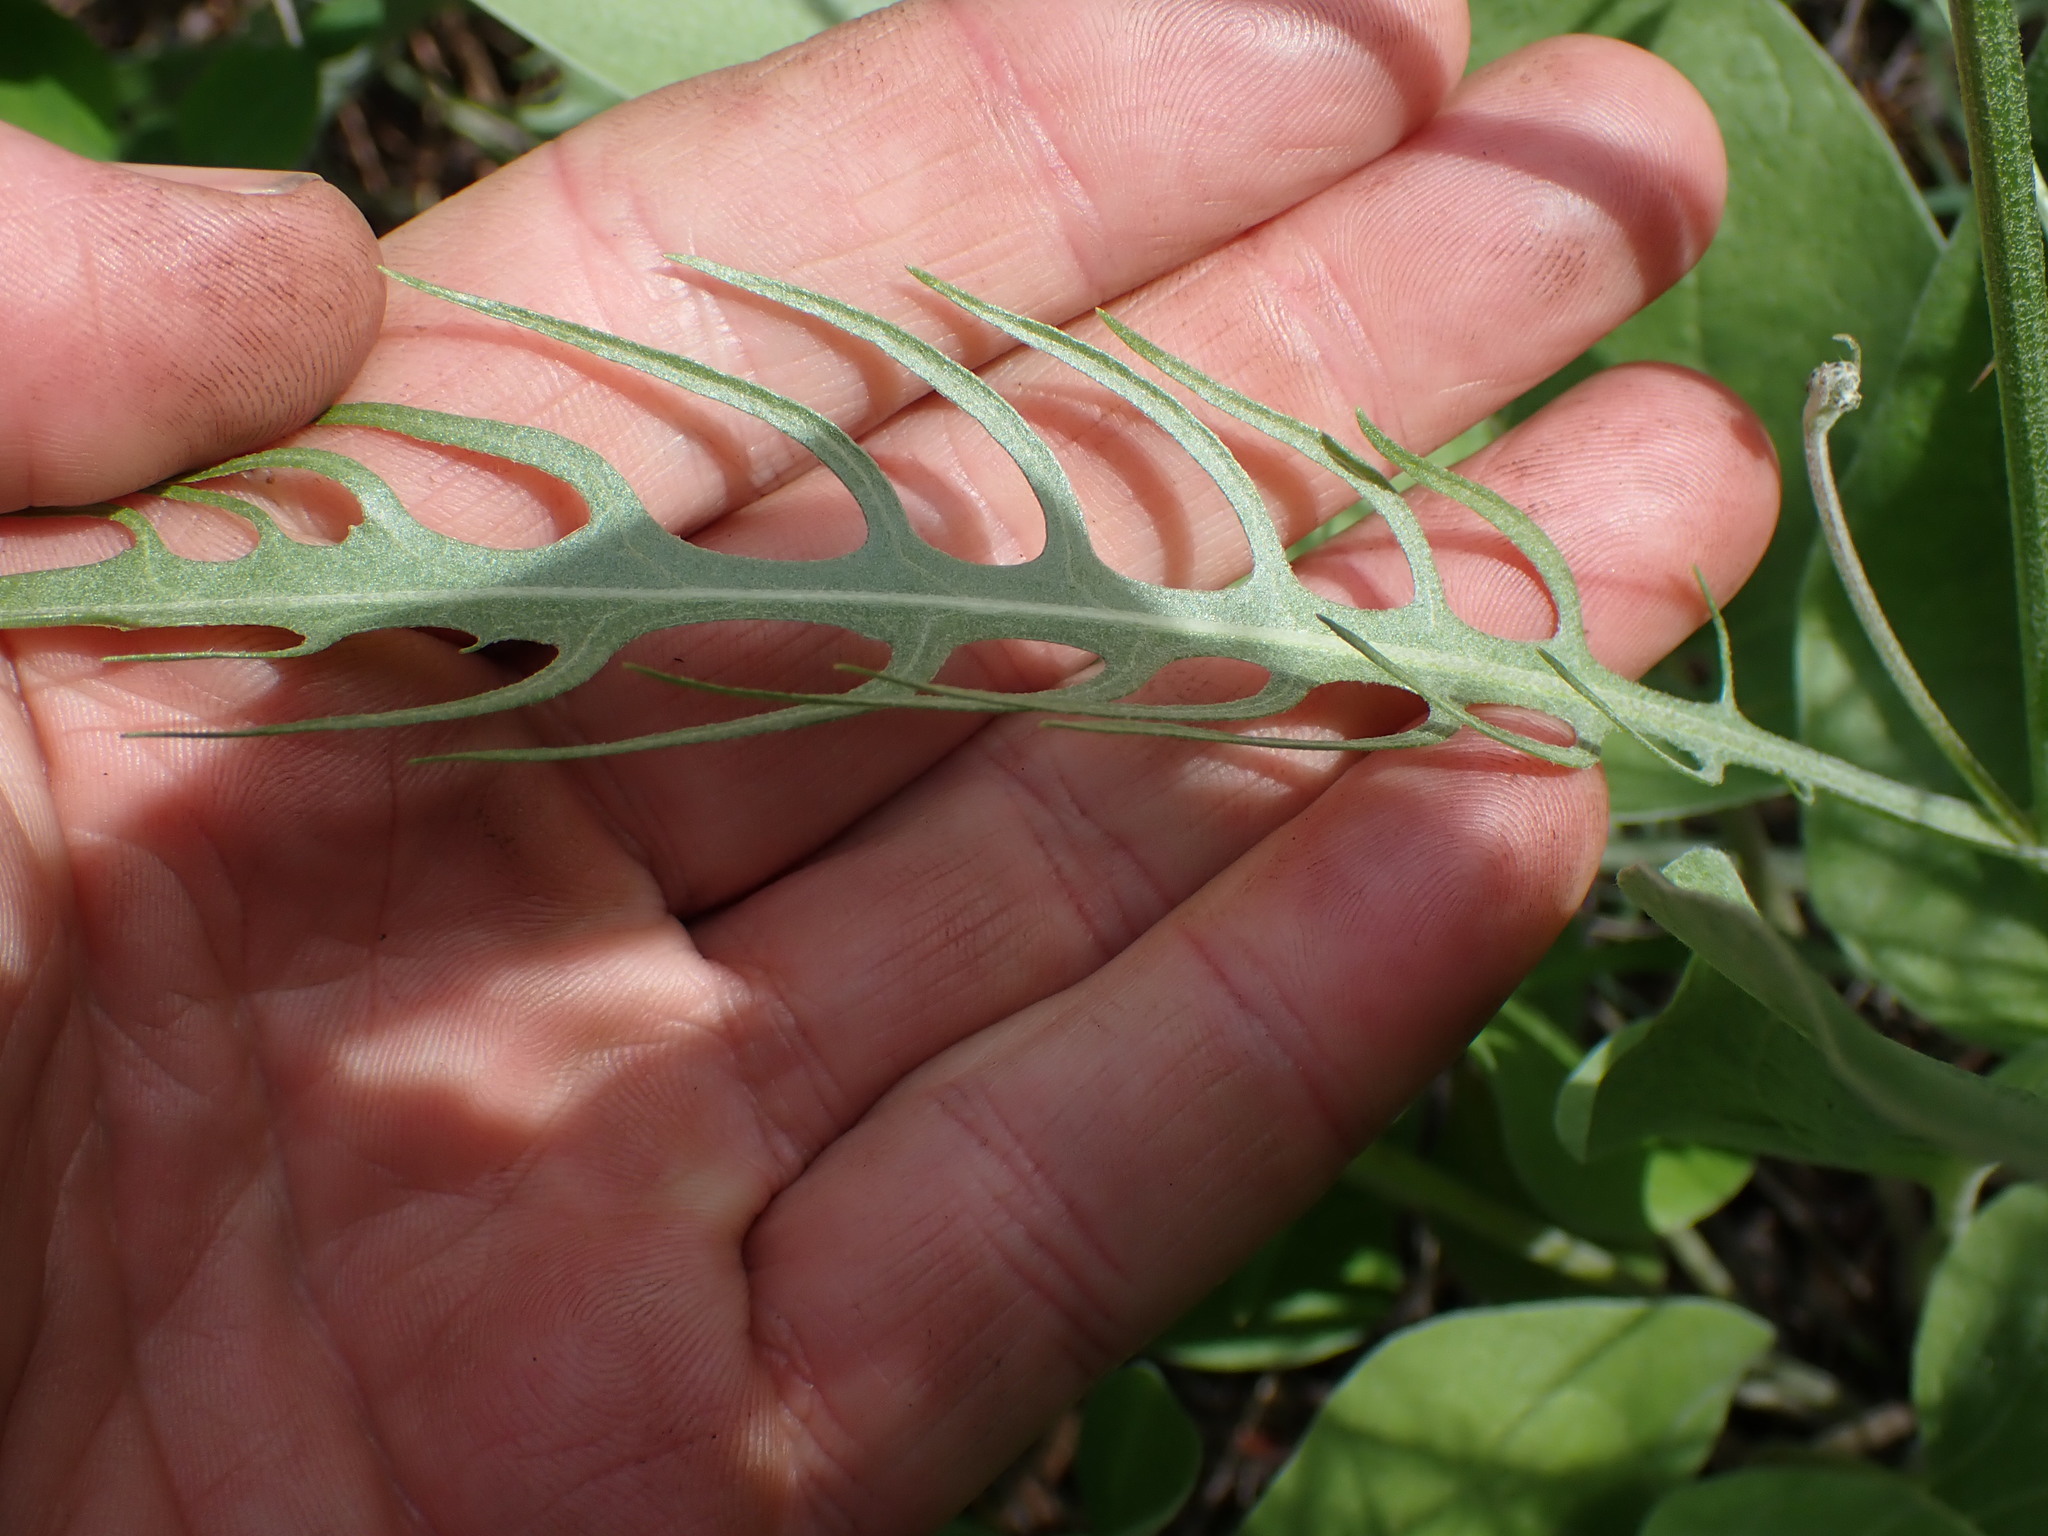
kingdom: Plantae
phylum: Tracheophyta
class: Magnoliopsida
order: Asterales
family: Asteraceae
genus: Crepis
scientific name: Crepis atribarba
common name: Dark hawk's-beard
